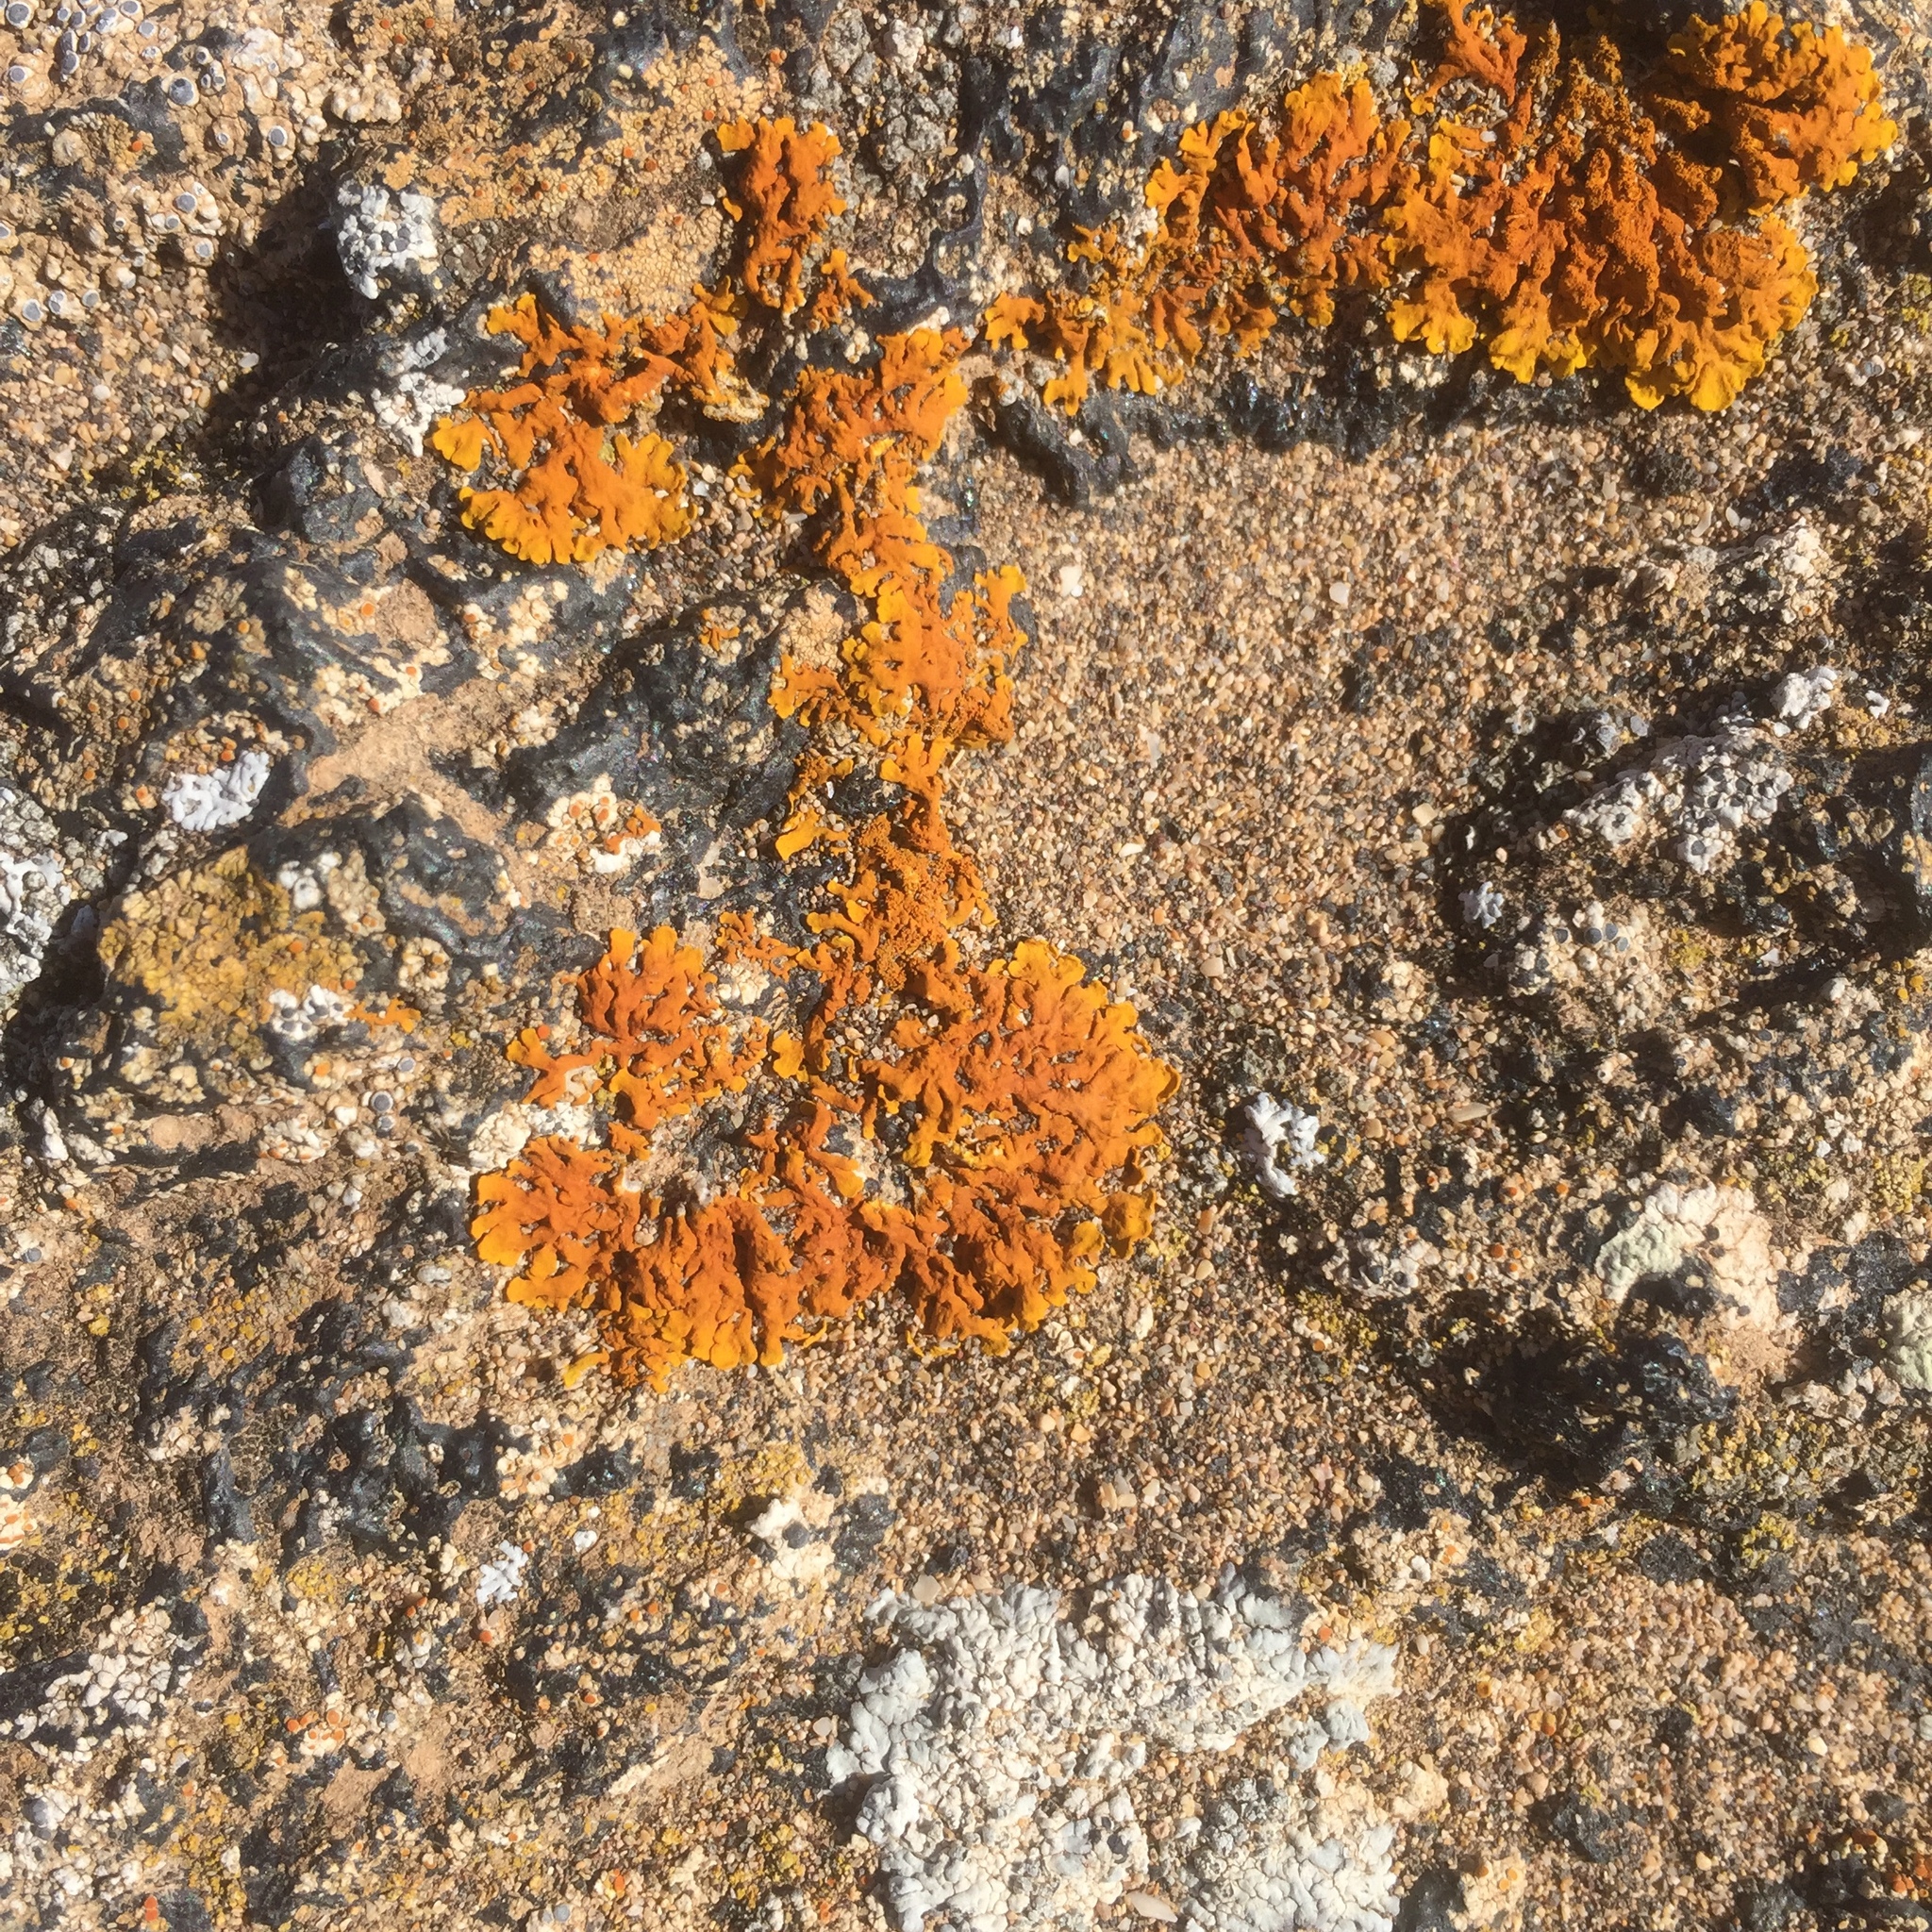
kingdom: Fungi
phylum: Ascomycota
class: Lecanoromycetes
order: Teloschistales
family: Teloschistaceae
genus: Xanthoria
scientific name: Xanthoria calcicola
